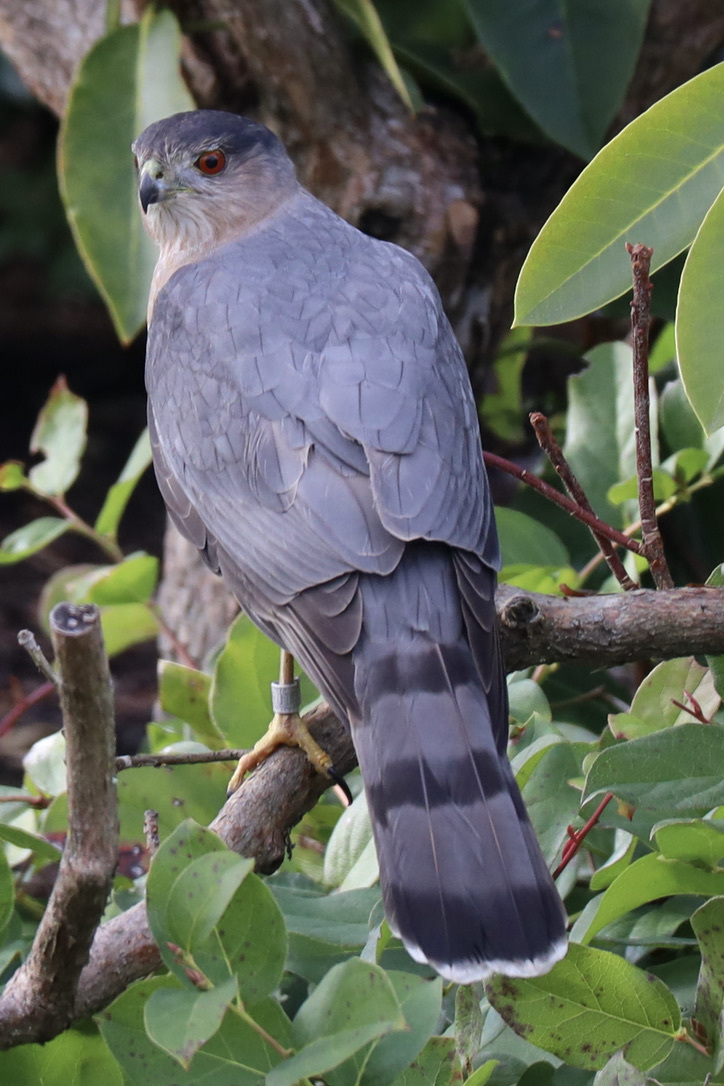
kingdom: Animalia
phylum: Chordata
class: Aves
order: Accipitriformes
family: Accipitridae
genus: Accipiter
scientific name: Accipiter cooperii
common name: Cooper's hawk
